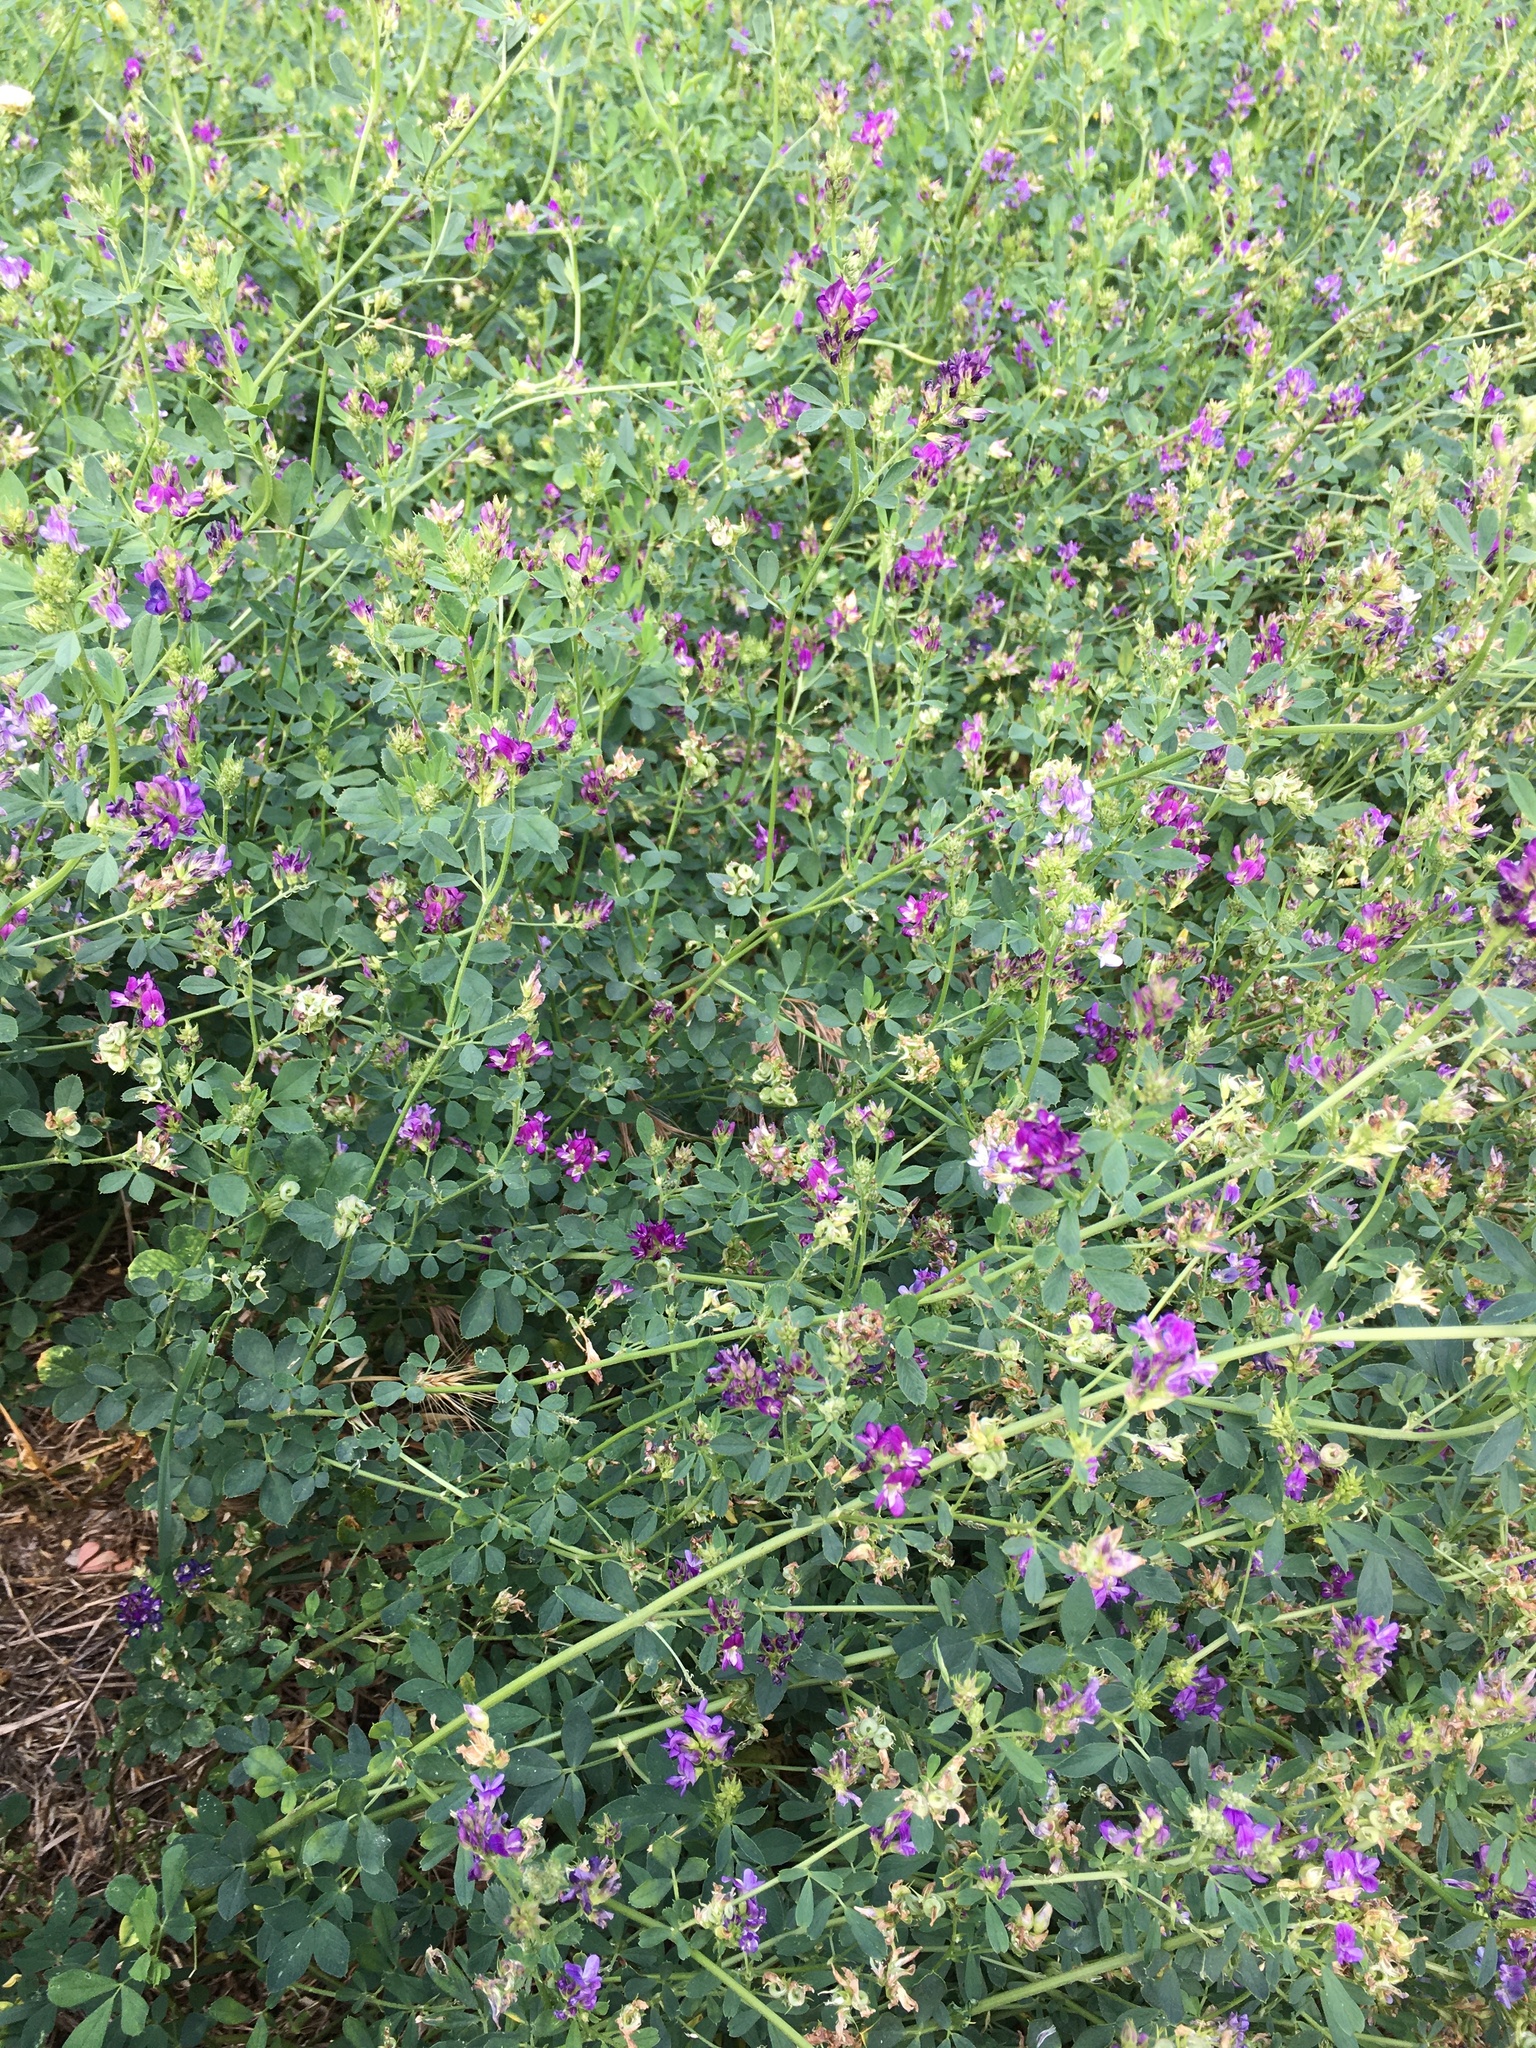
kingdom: Plantae
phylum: Tracheophyta
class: Magnoliopsida
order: Fabales
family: Fabaceae
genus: Medicago
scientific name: Medicago sativa
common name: Alfalfa
